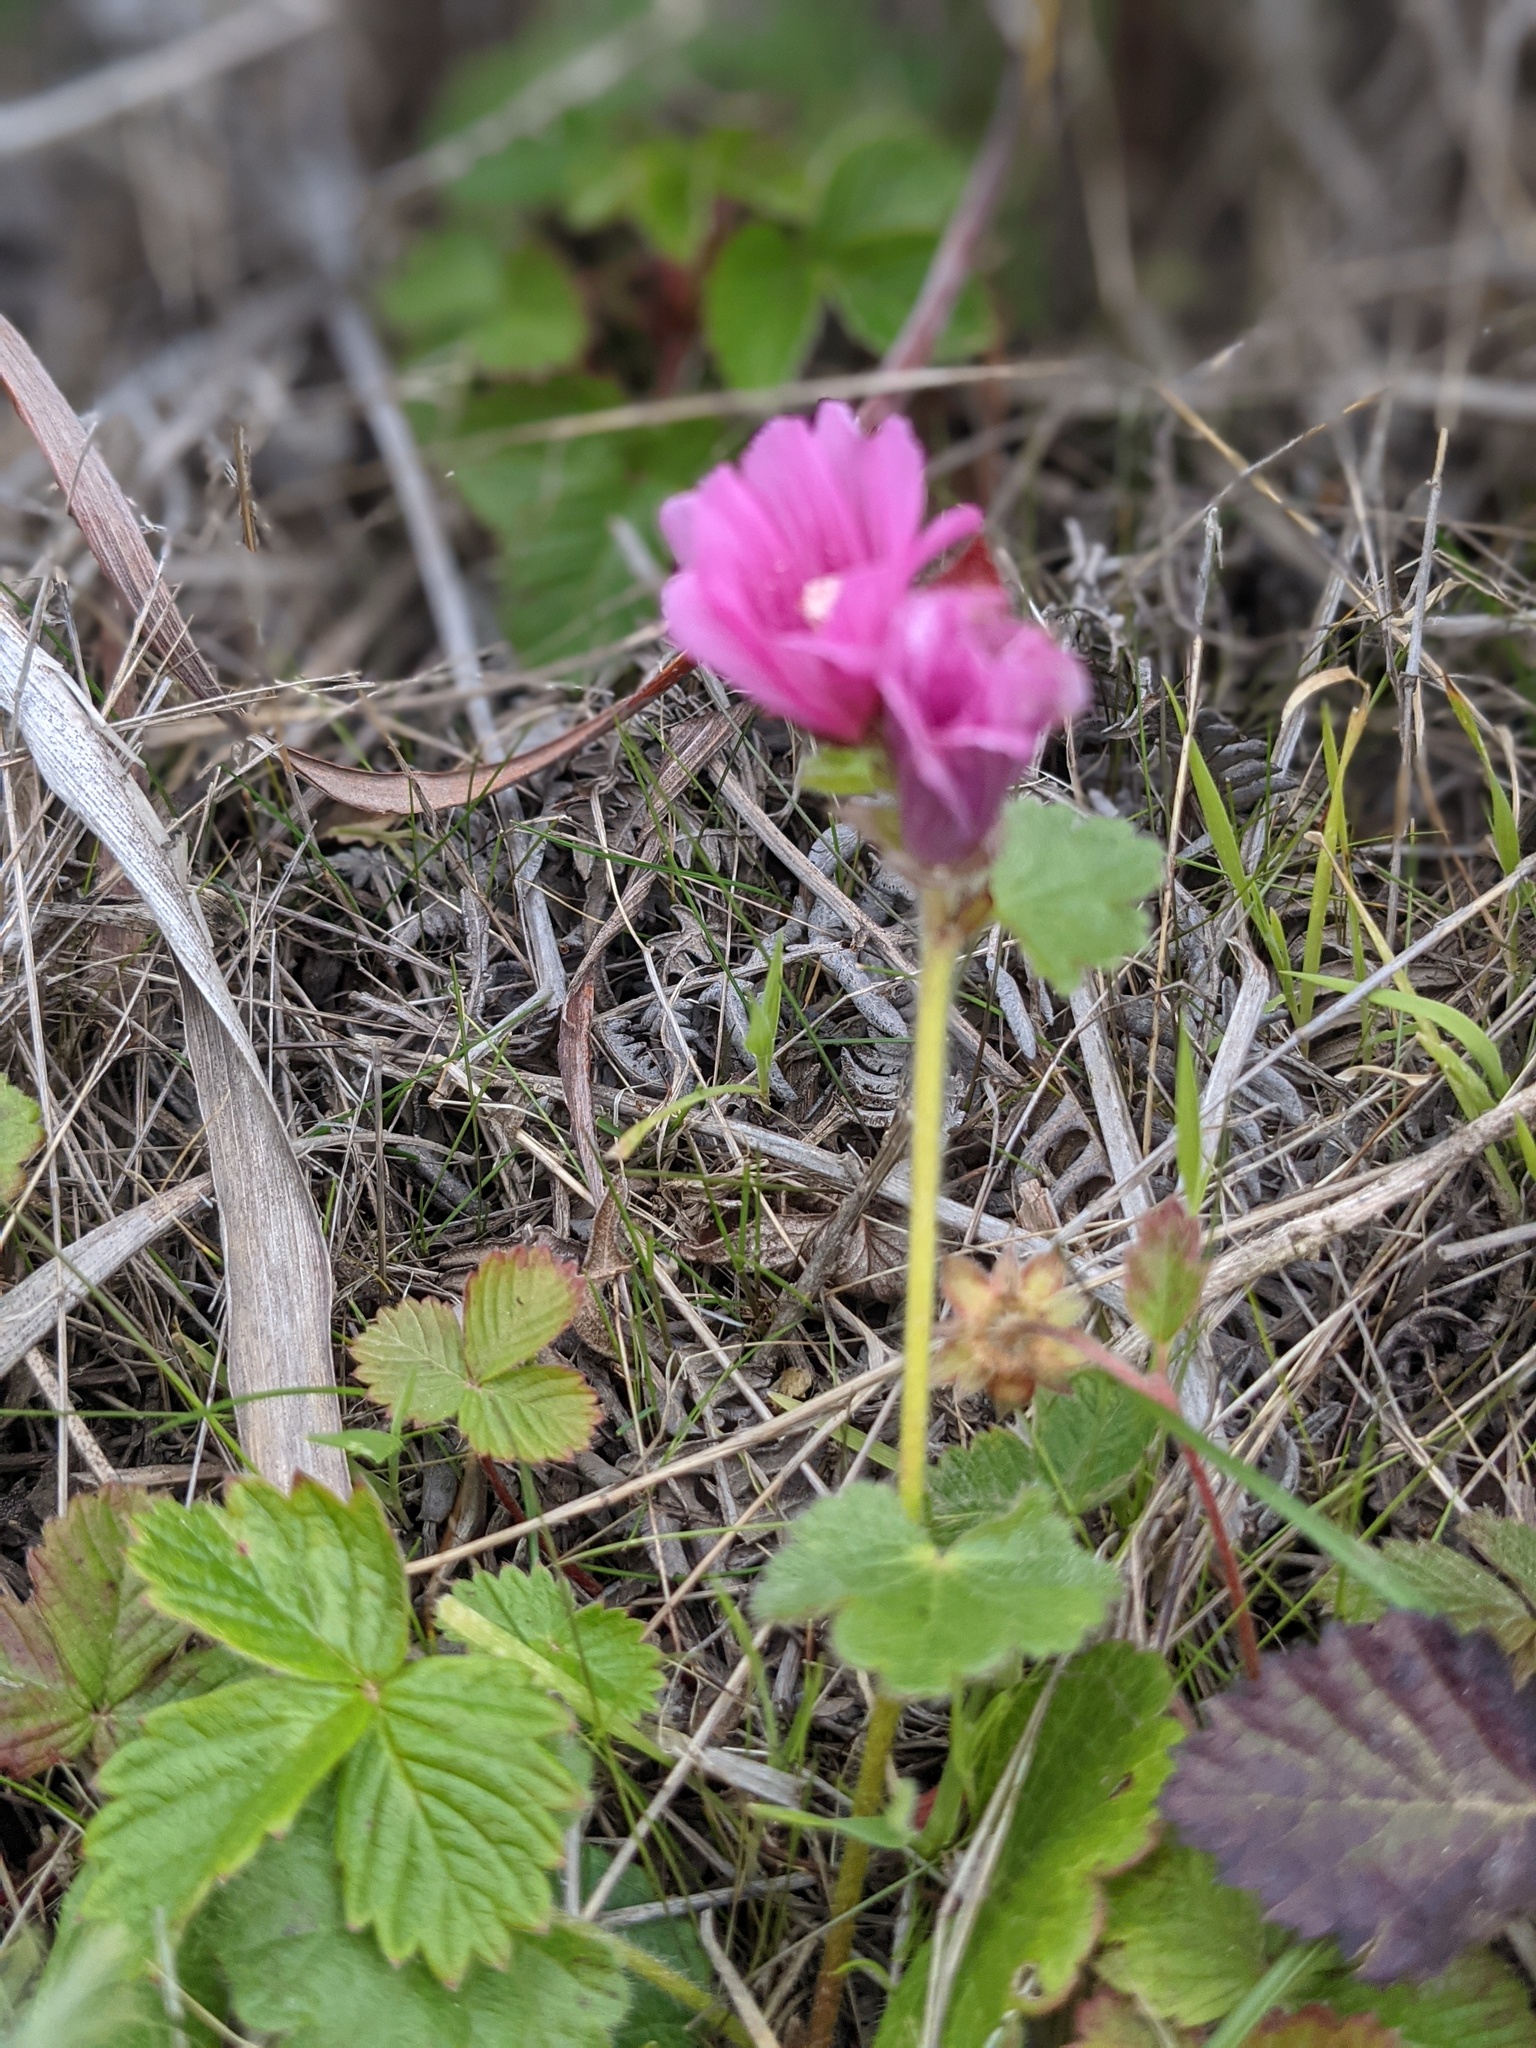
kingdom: Plantae
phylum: Tracheophyta
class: Magnoliopsida
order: Malvales
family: Malvaceae
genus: Sidalcea
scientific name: Sidalcea malviflora
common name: Greek mallow
